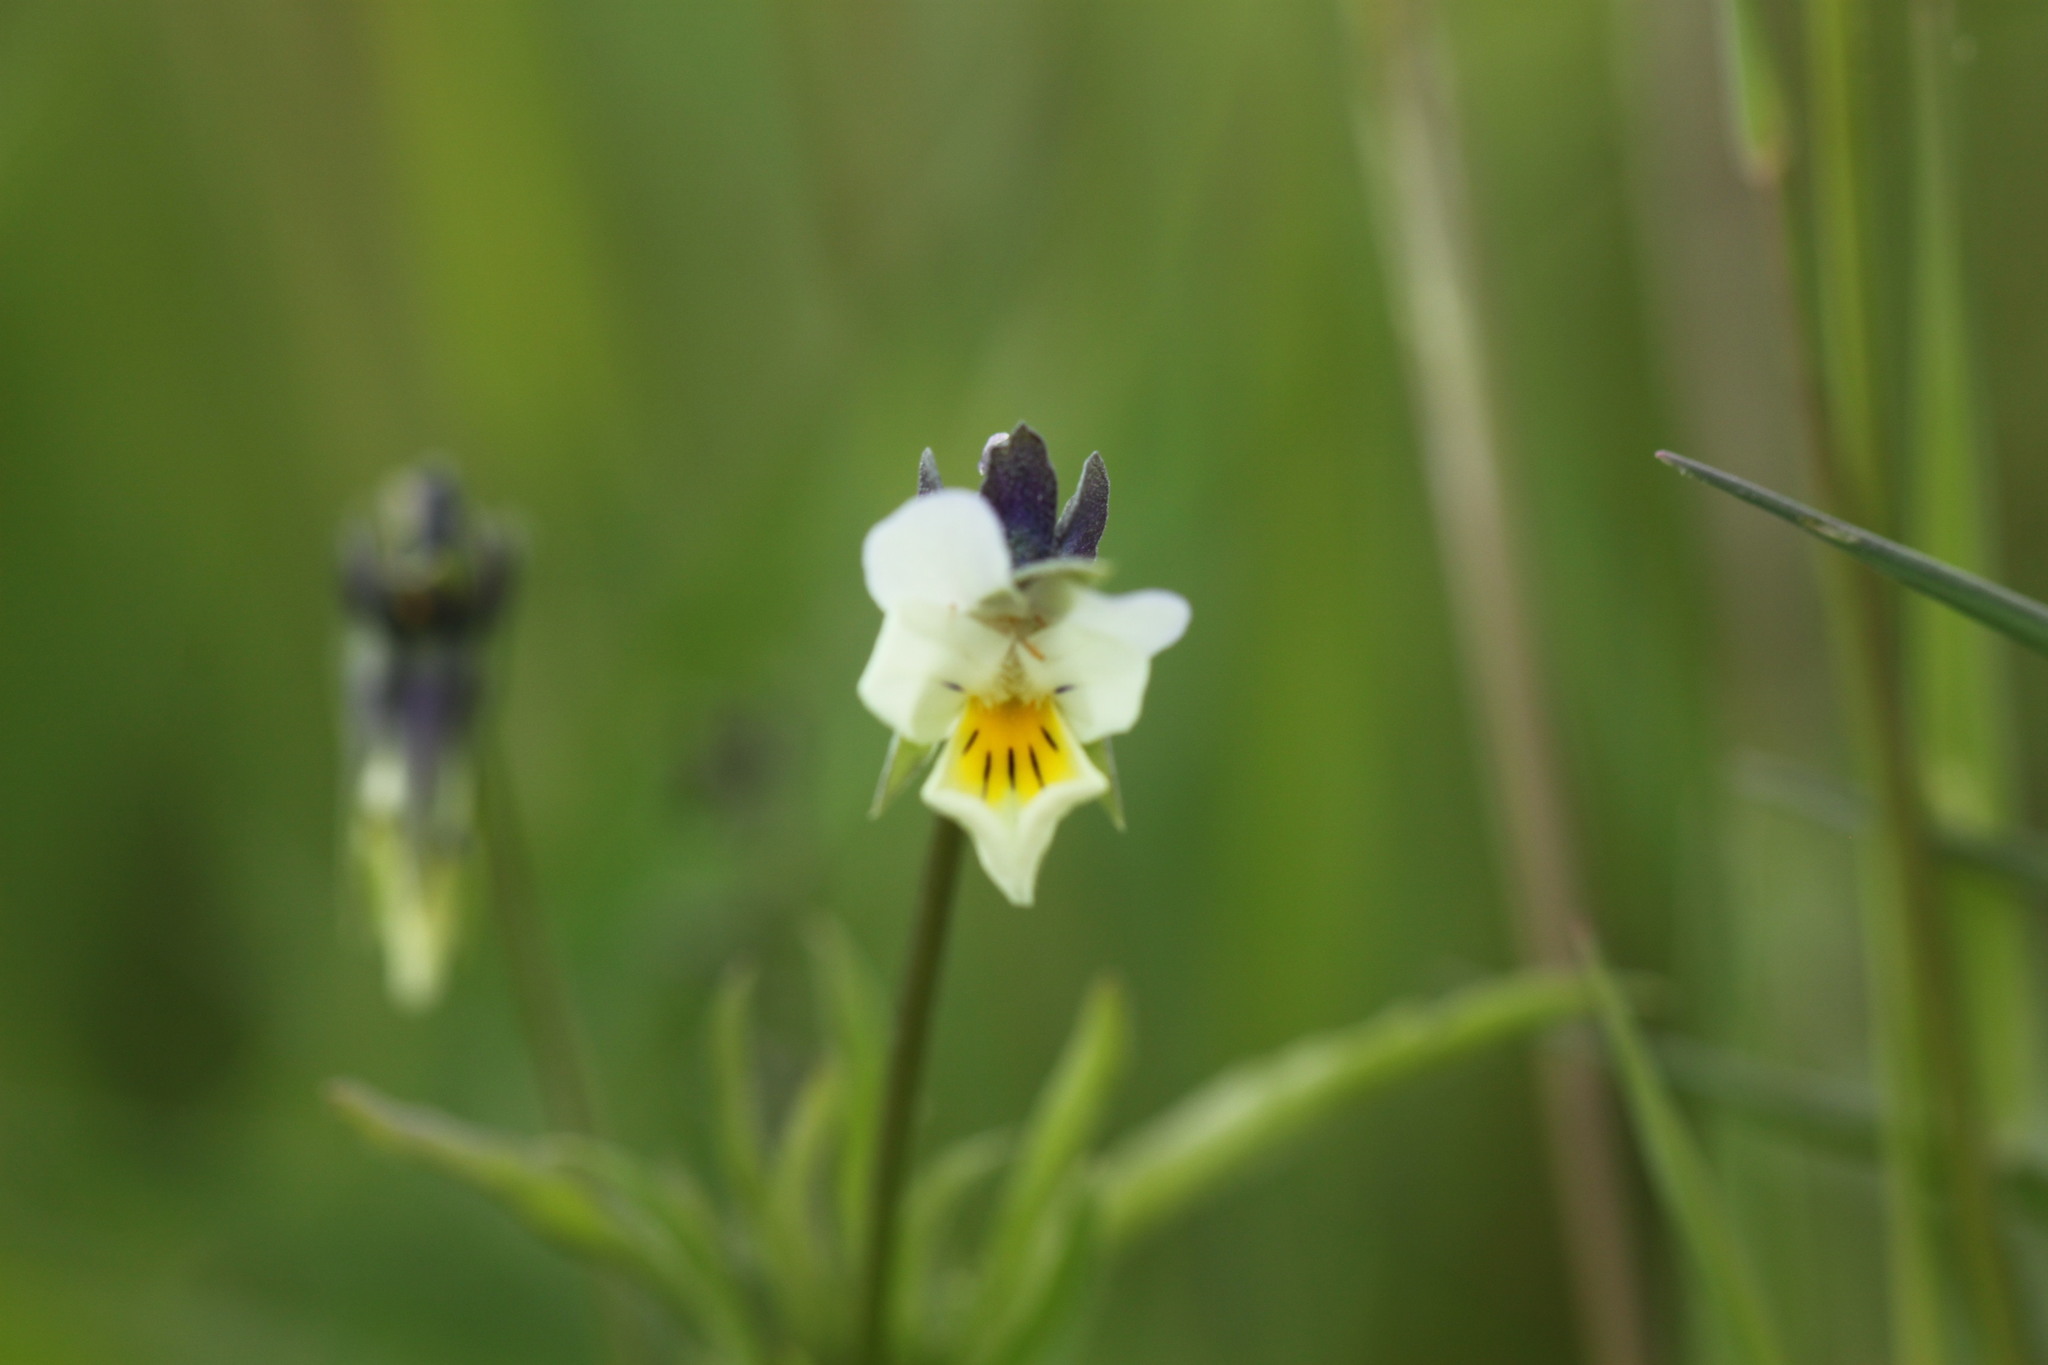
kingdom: Plantae
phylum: Tracheophyta
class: Magnoliopsida
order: Malpighiales
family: Violaceae
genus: Viola
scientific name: Viola arvensis
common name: Field pansy
